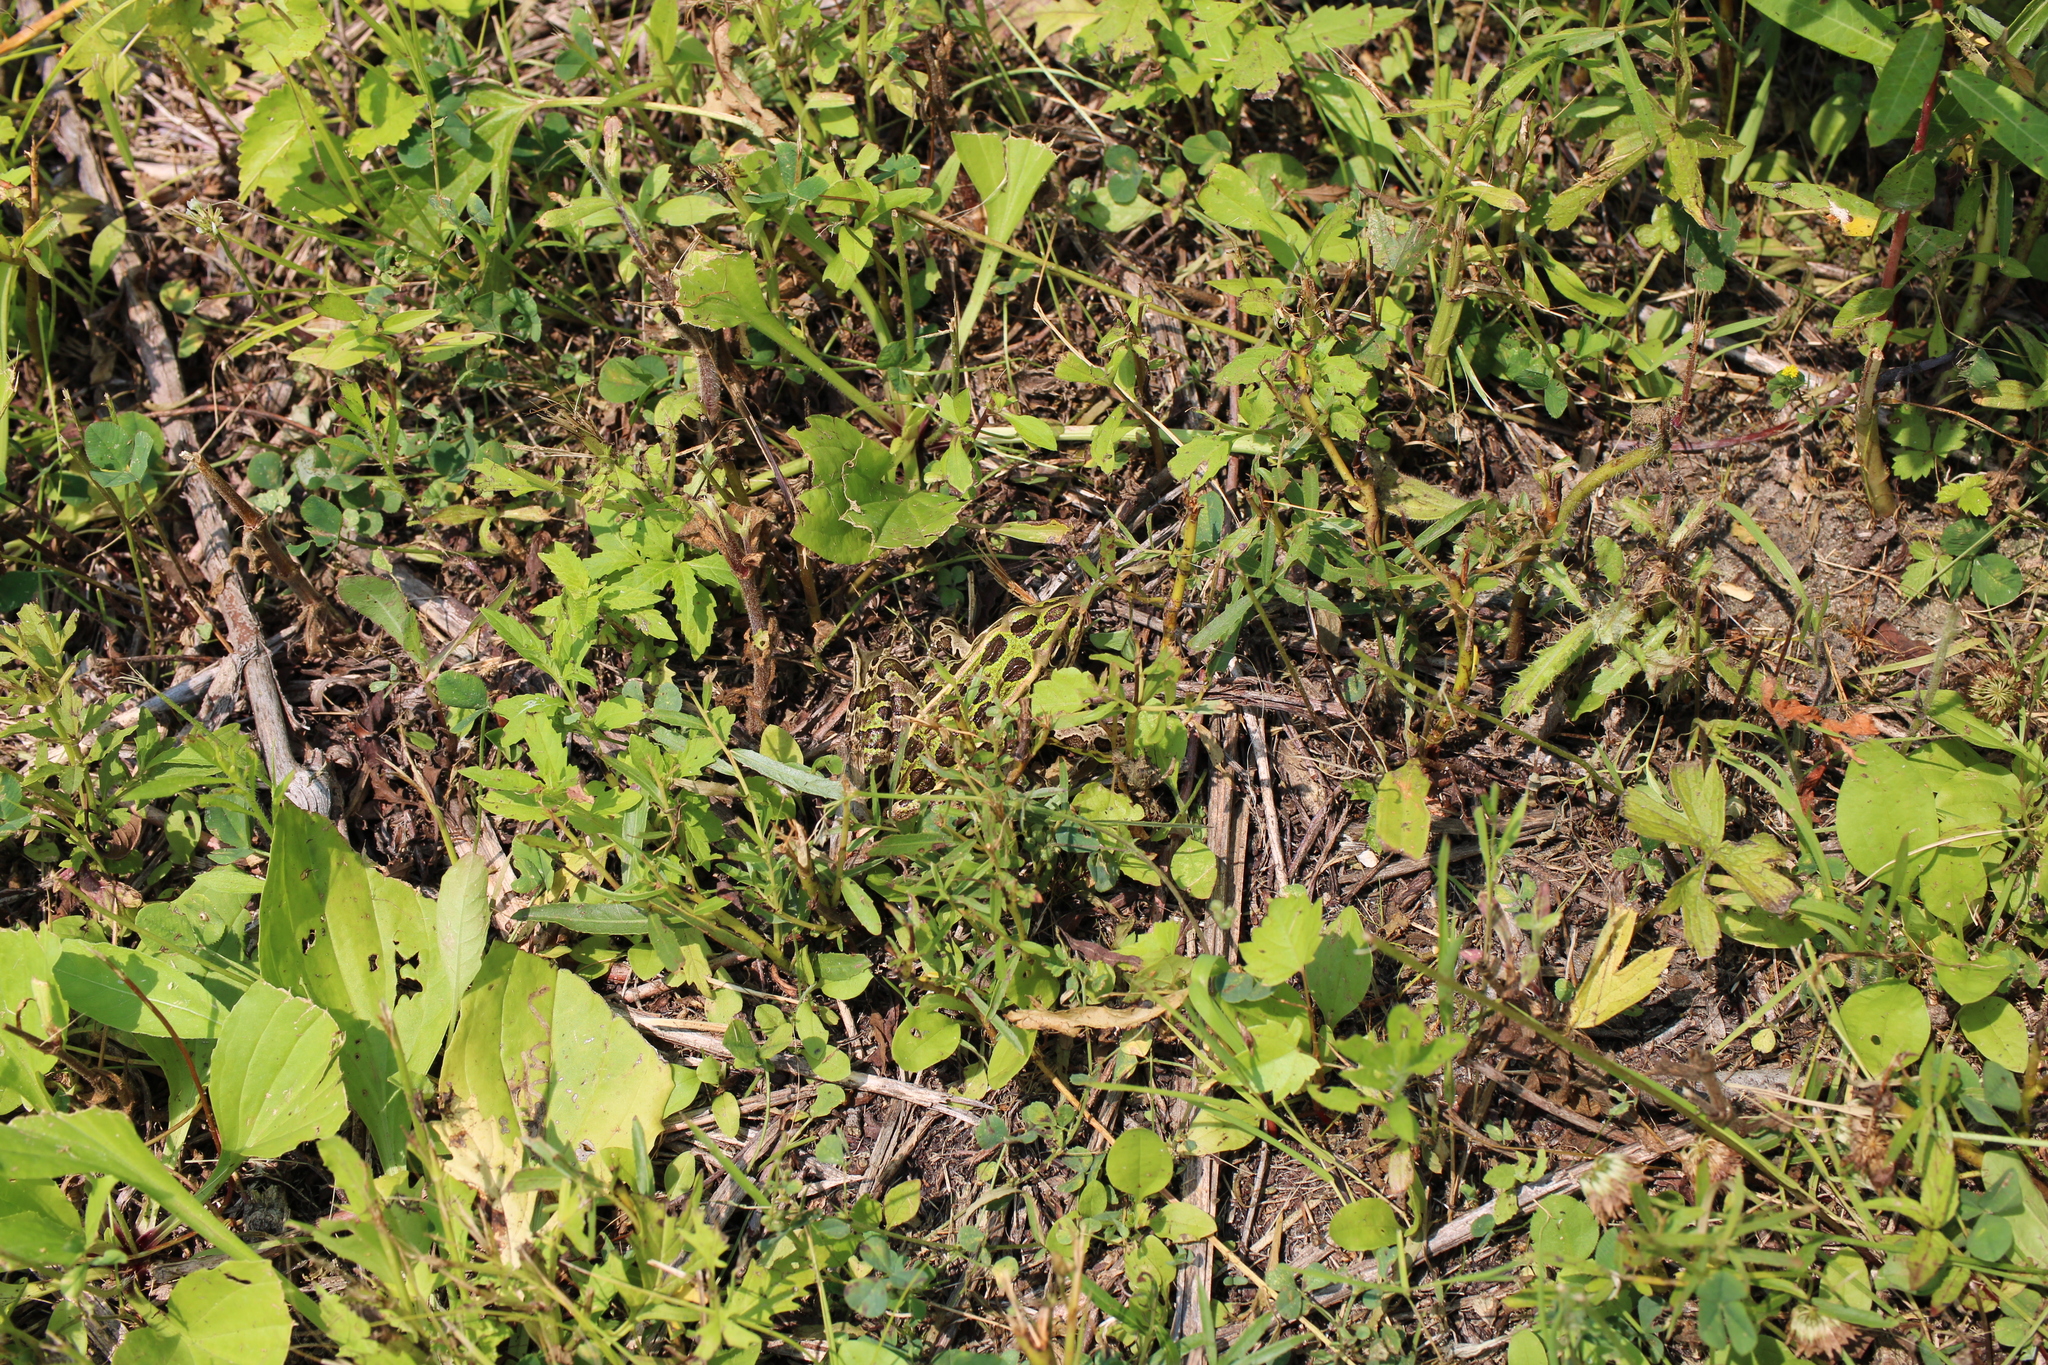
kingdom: Animalia
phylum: Chordata
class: Amphibia
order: Anura
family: Ranidae
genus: Lithobates
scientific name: Lithobates pipiens
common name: Northern leopard frog
